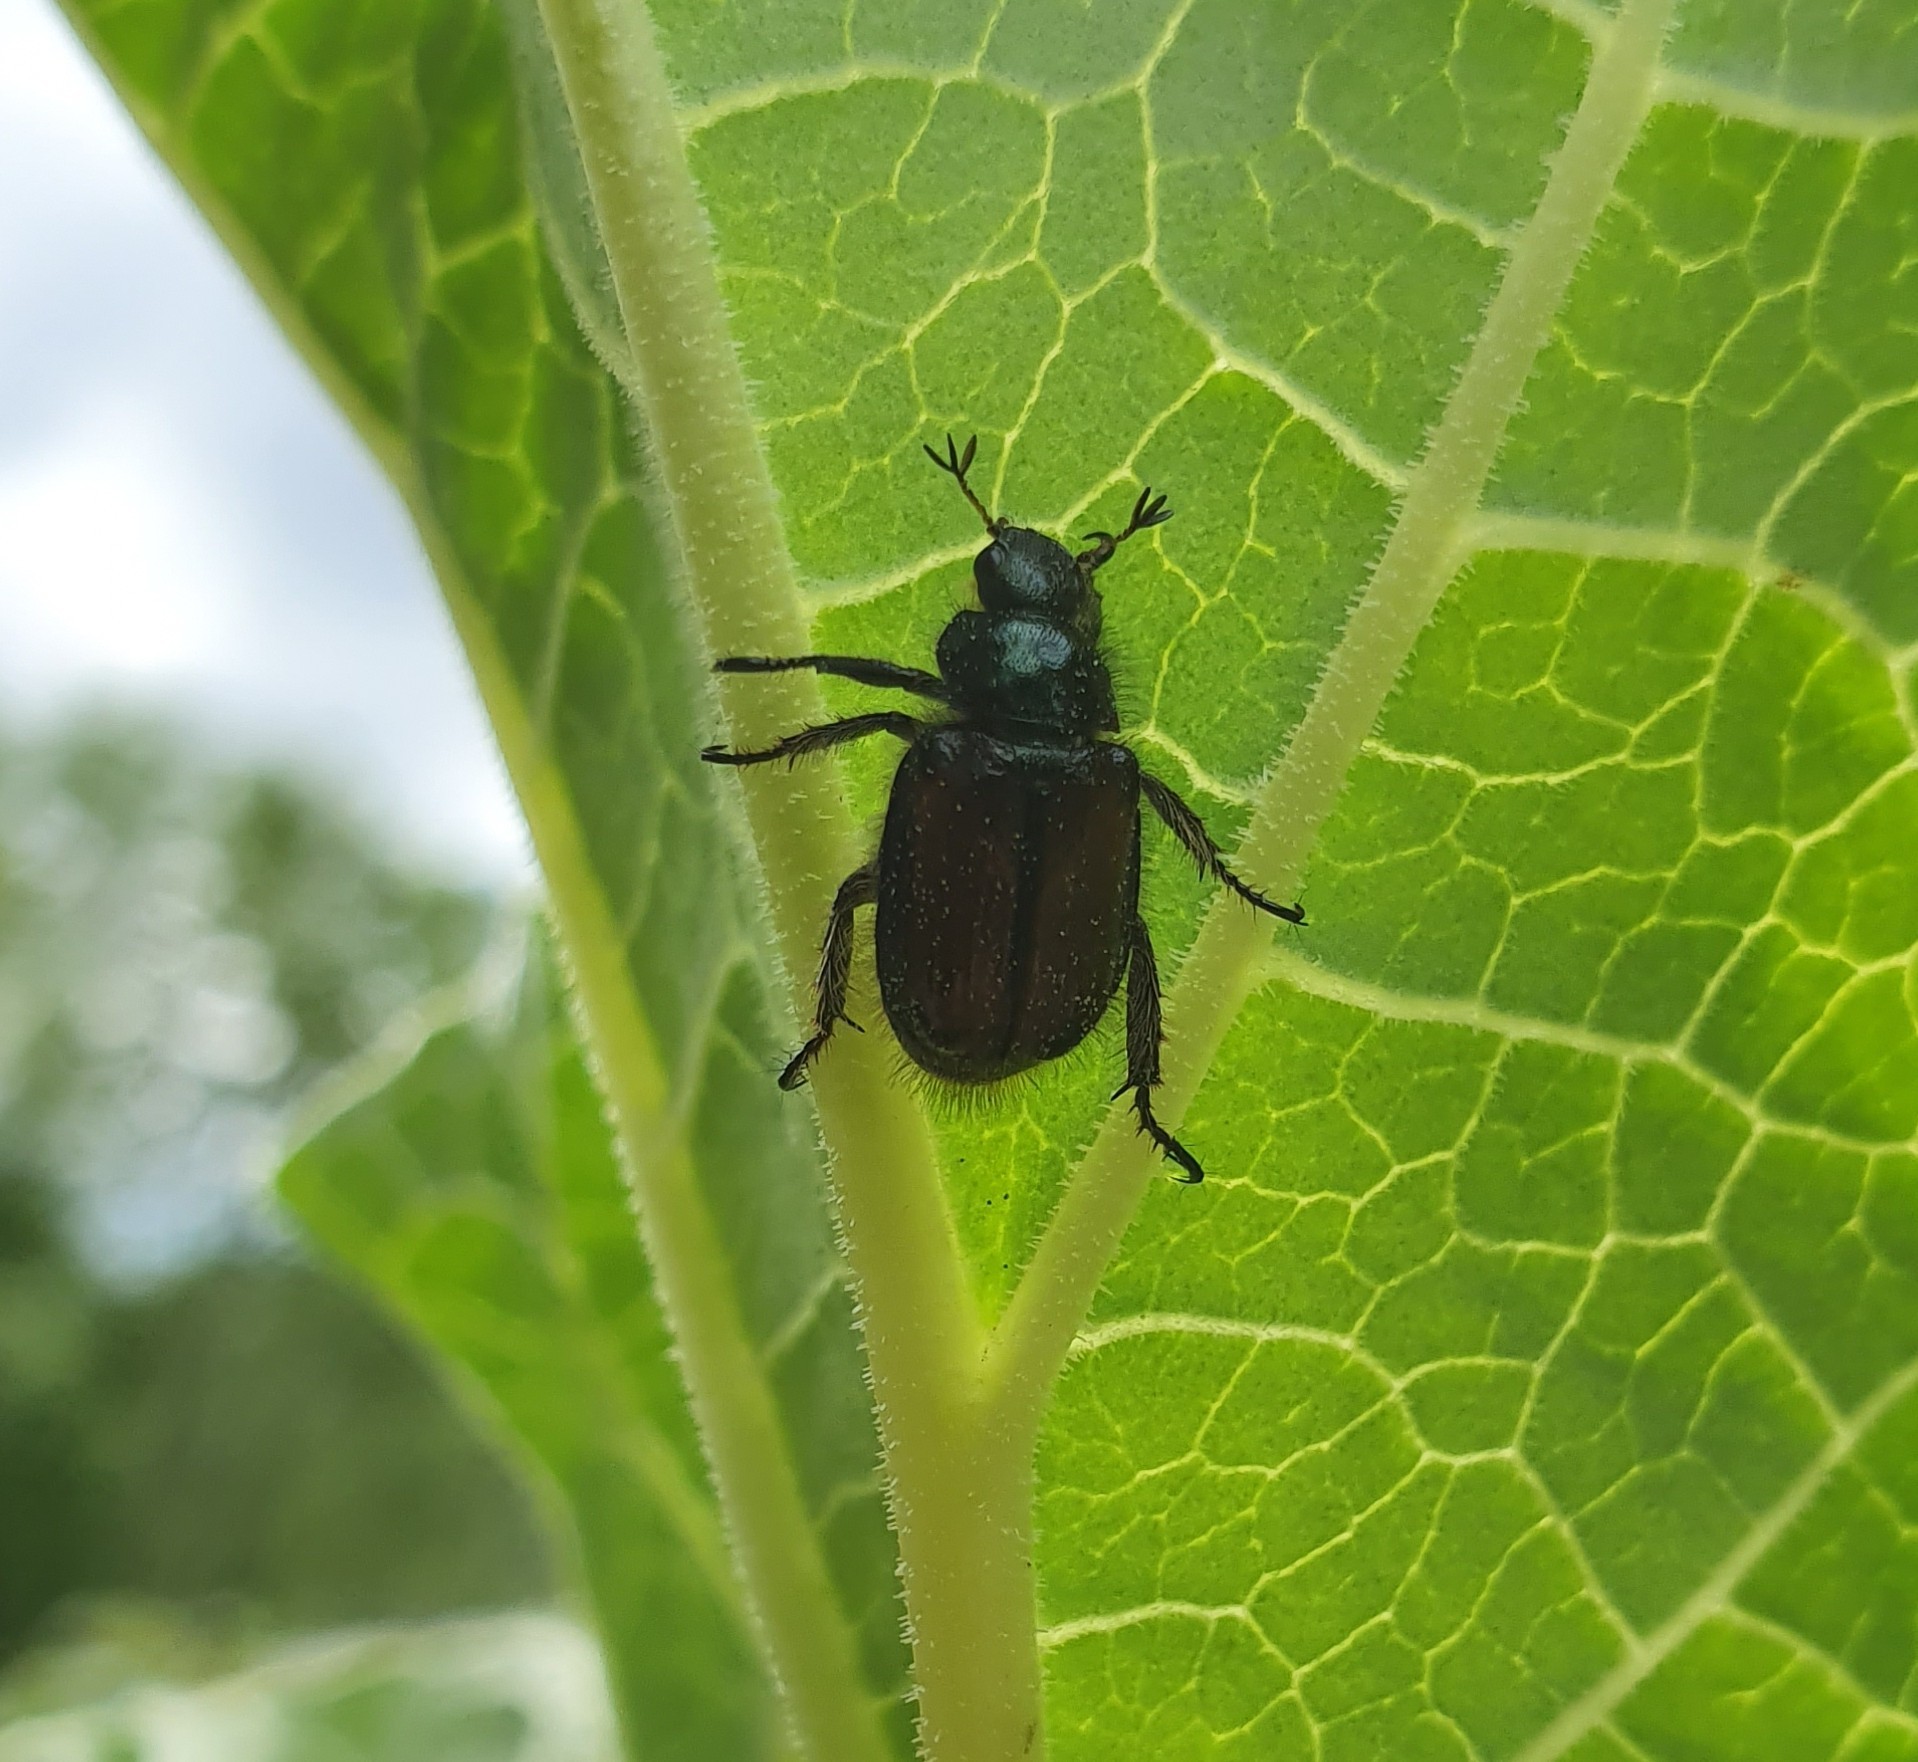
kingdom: Animalia
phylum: Arthropoda
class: Insecta
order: Coleoptera
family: Scarabaeidae
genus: Phyllopertha
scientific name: Phyllopertha horticola
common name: Garden chafer
